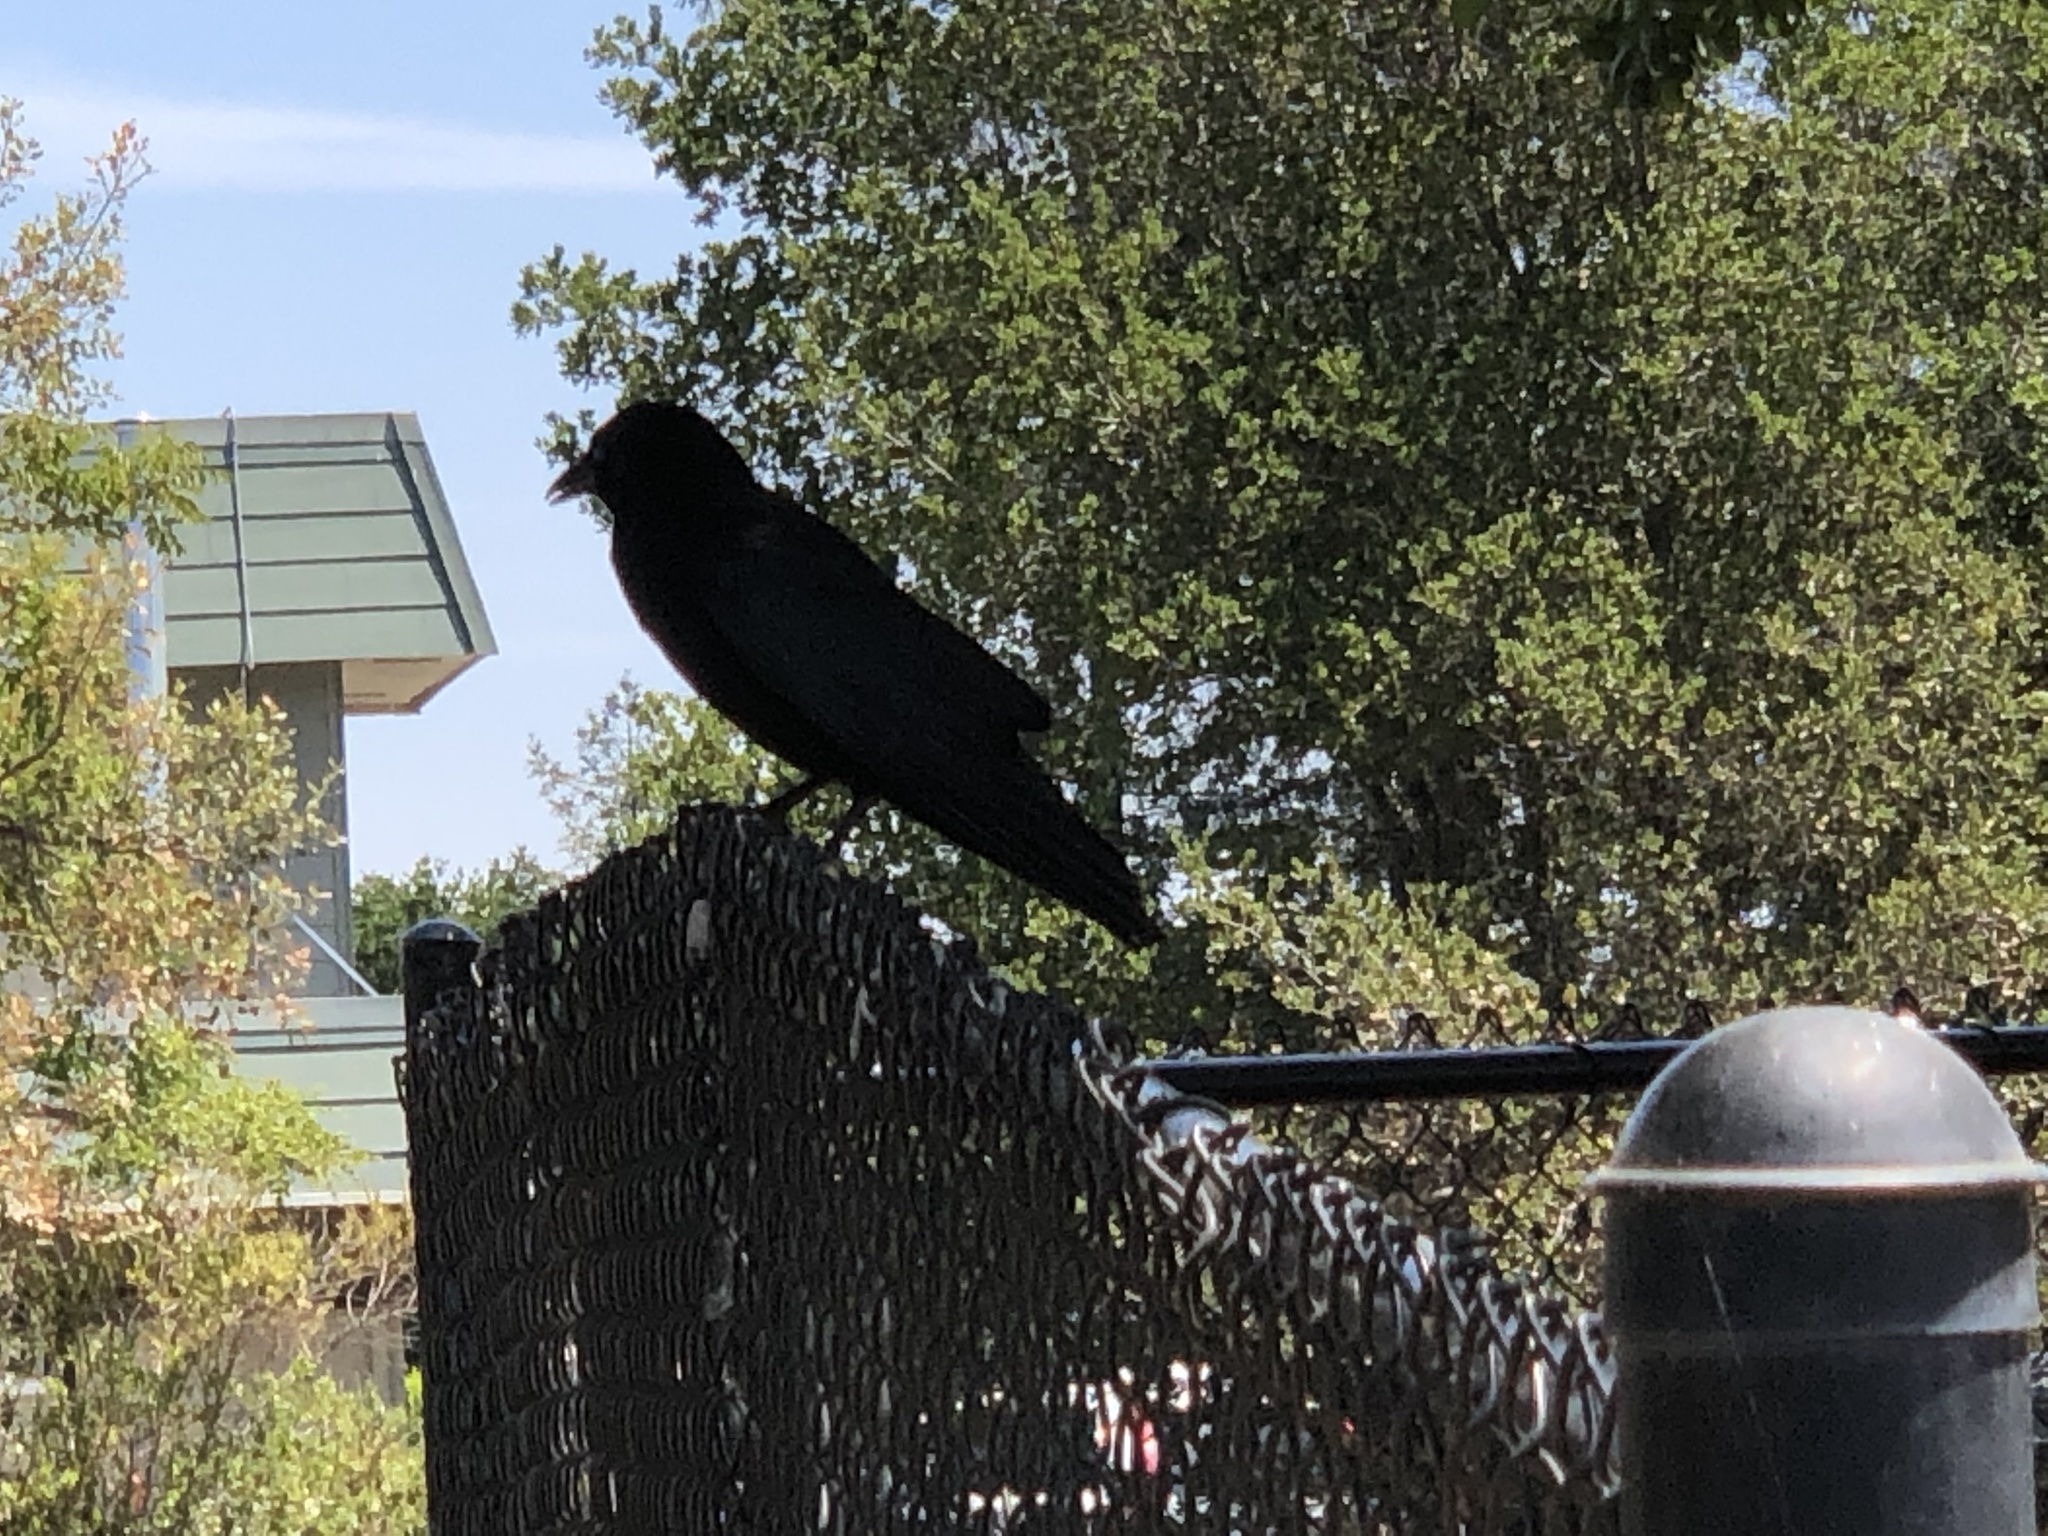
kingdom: Animalia
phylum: Chordata
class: Aves
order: Passeriformes
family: Corvidae
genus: Corvus
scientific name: Corvus brachyrhynchos
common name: American crow
